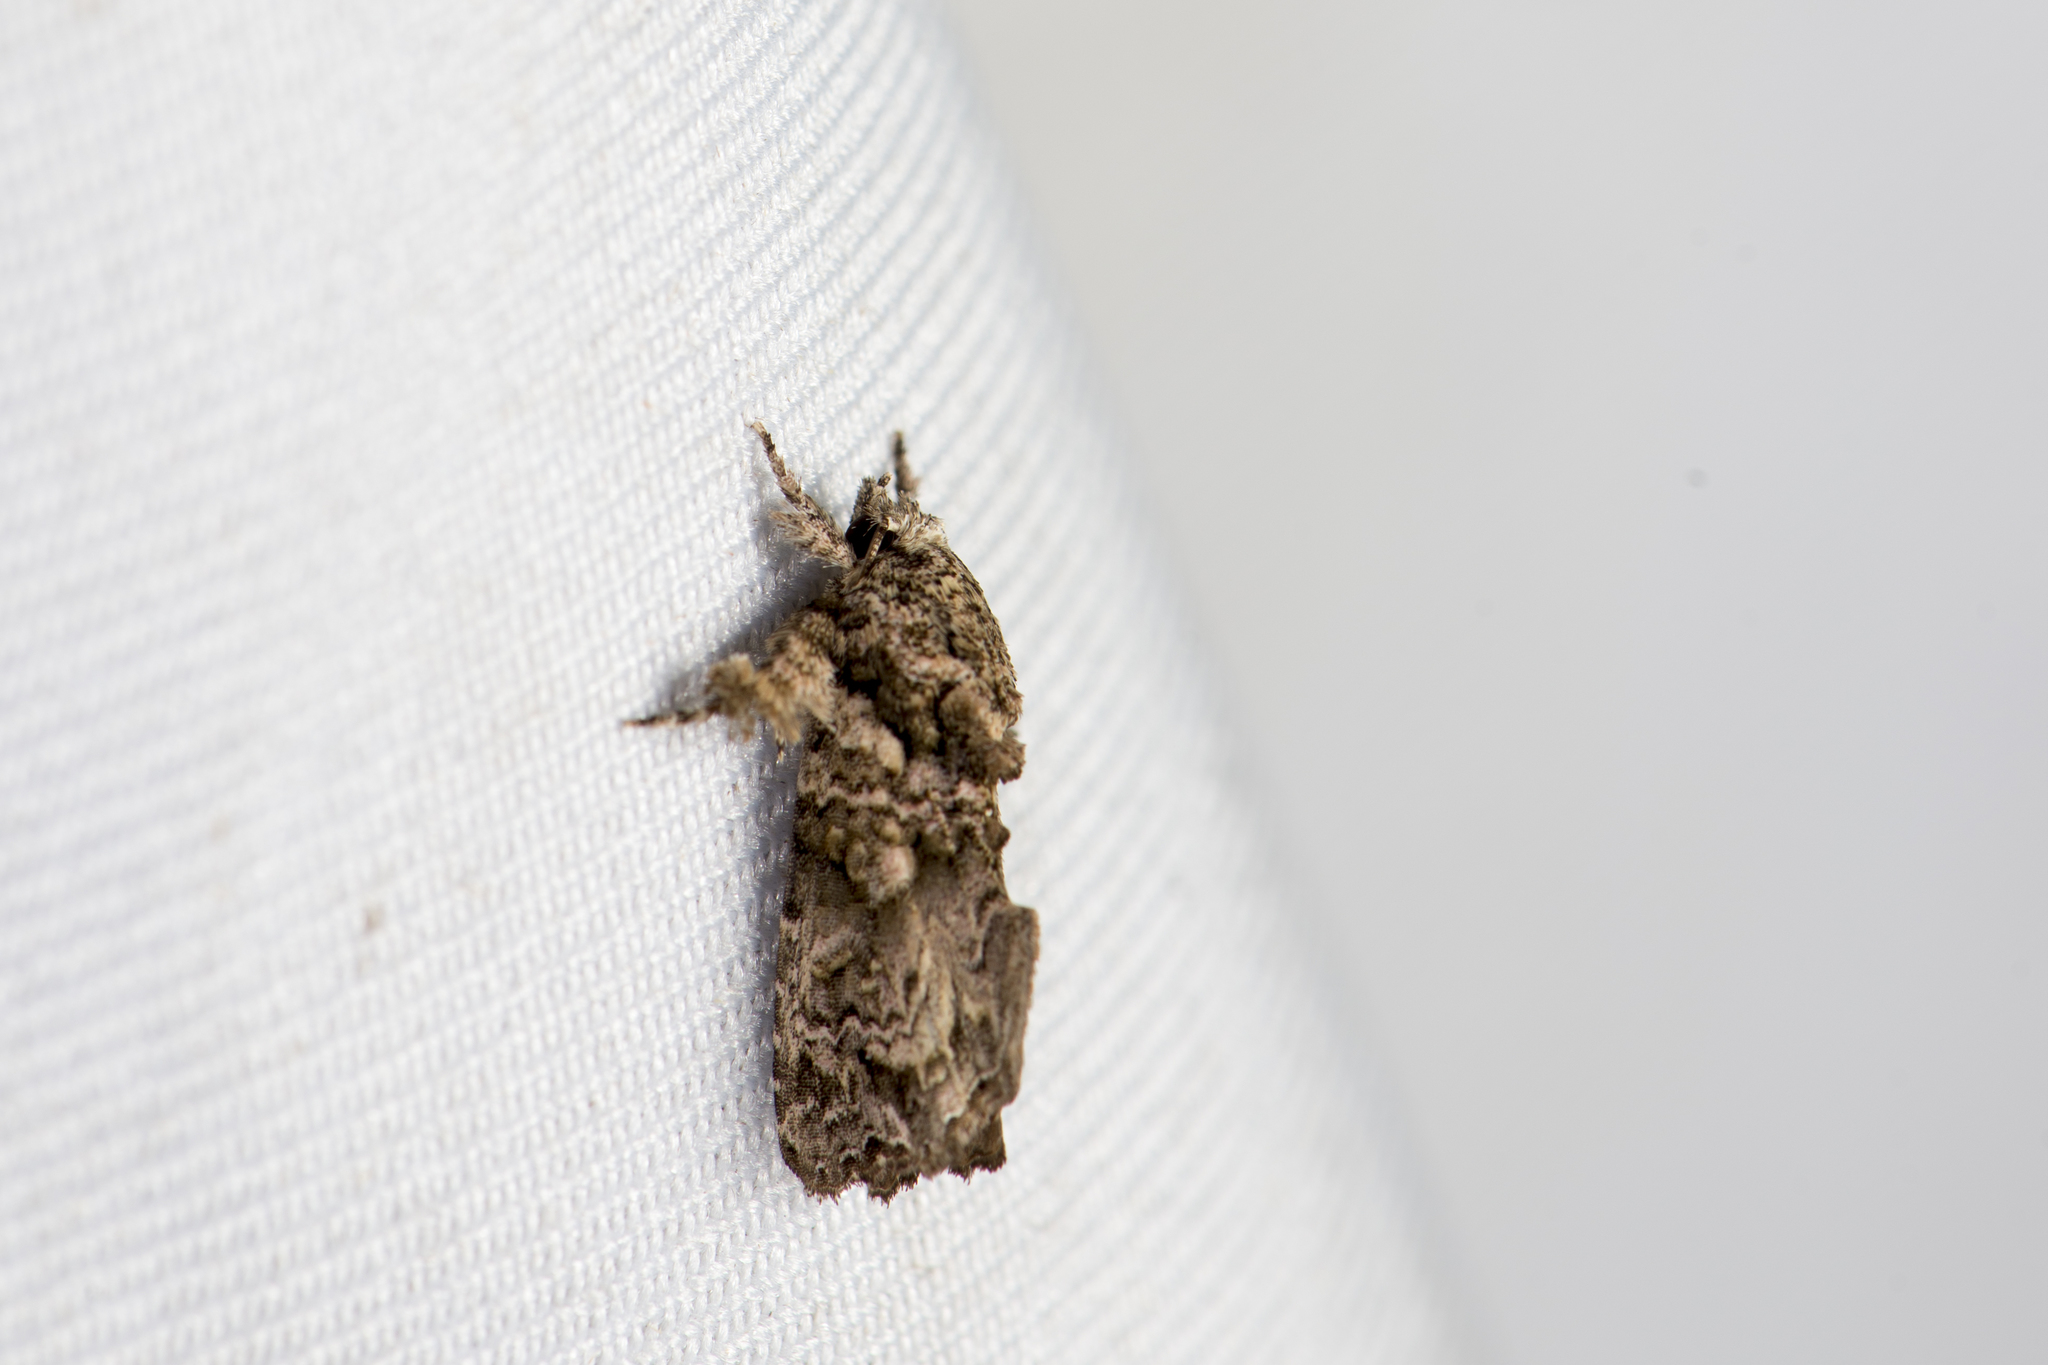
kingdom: Animalia
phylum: Arthropoda
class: Insecta
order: Lepidoptera
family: Noctuidae
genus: Callopistria
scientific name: Callopistria guttulalis
